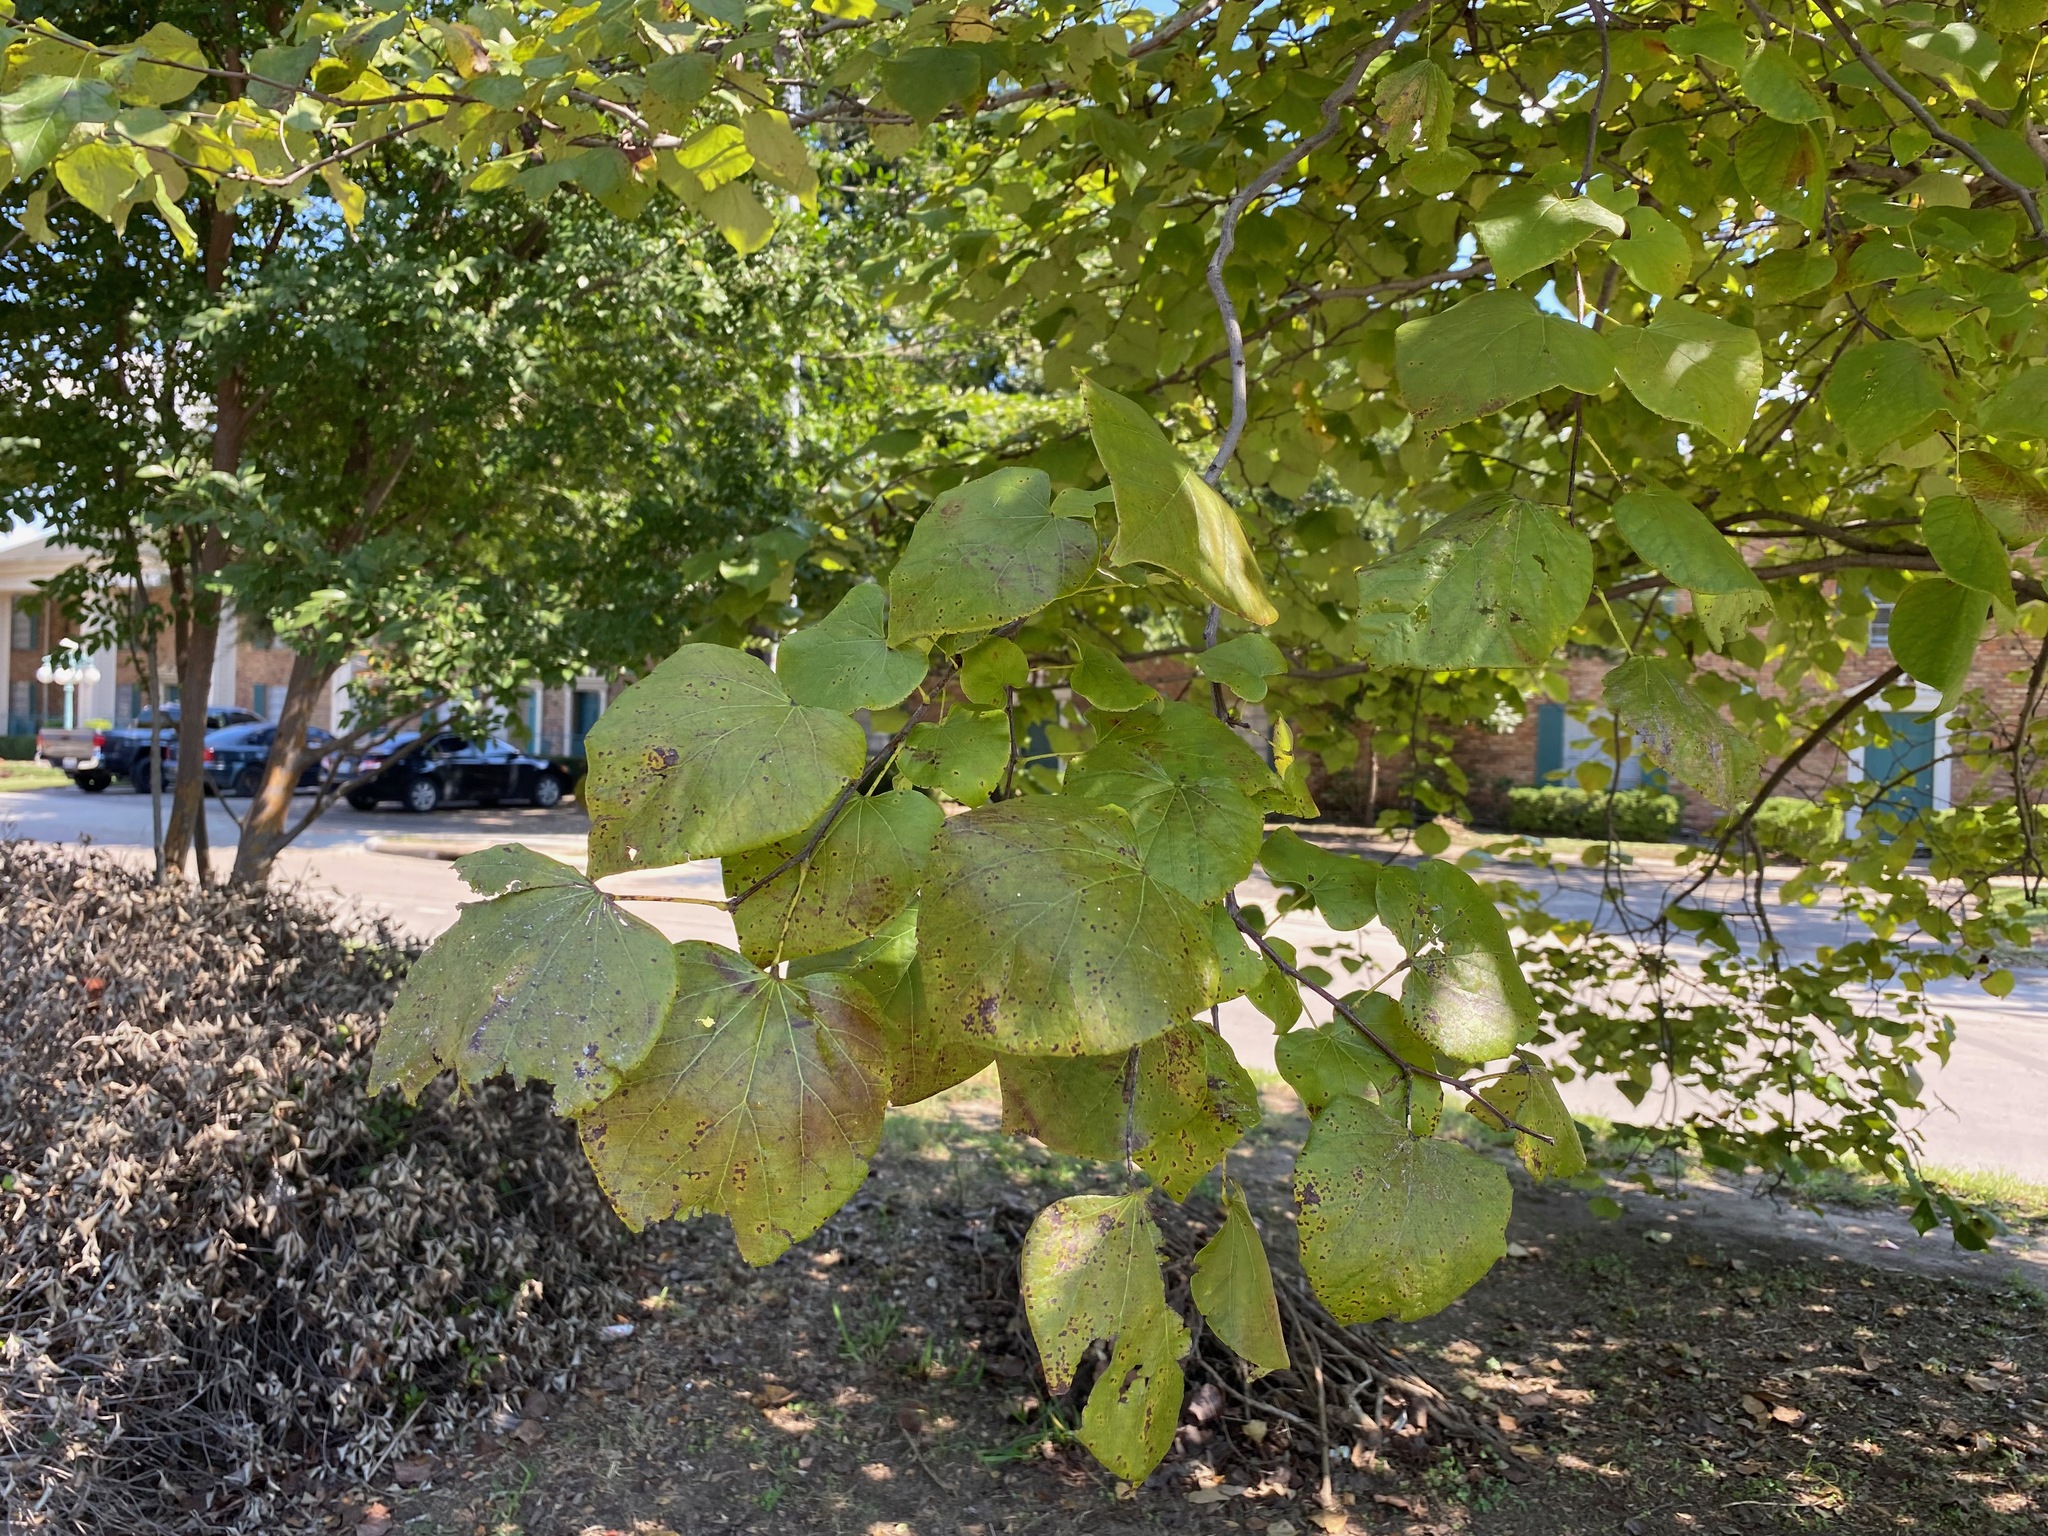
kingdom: Plantae
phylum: Tracheophyta
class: Magnoliopsida
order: Fabales
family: Fabaceae
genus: Cercis
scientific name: Cercis canadensis
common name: Eastern redbud
